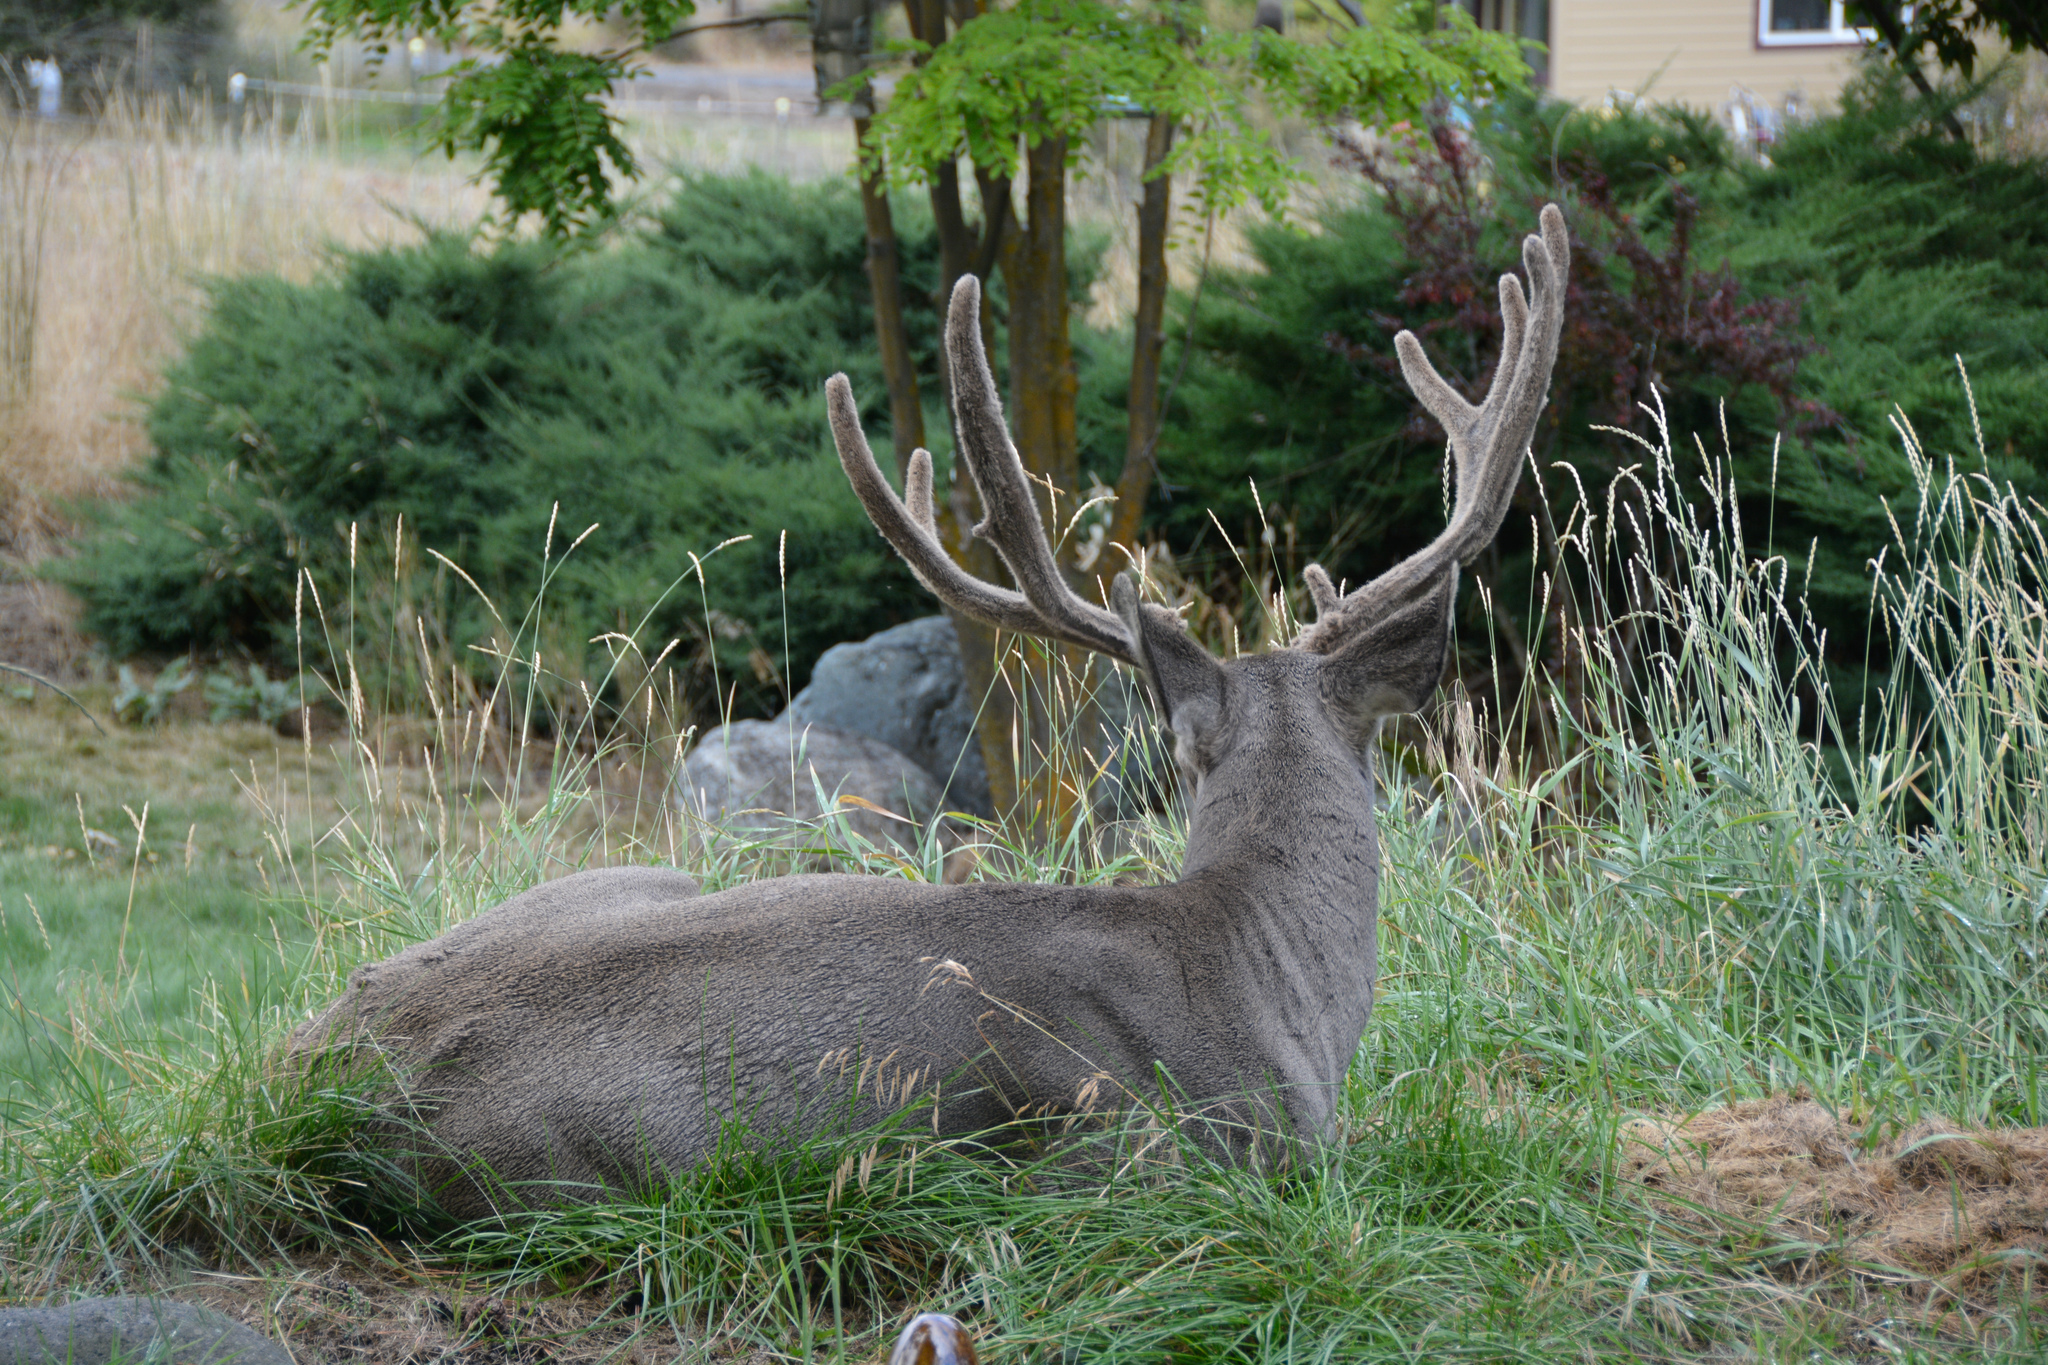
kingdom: Animalia
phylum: Chordata
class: Mammalia
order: Artiodactyla
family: Cervidae
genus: Odocoileus
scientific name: Odocoileus hemionus
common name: Mule deer
